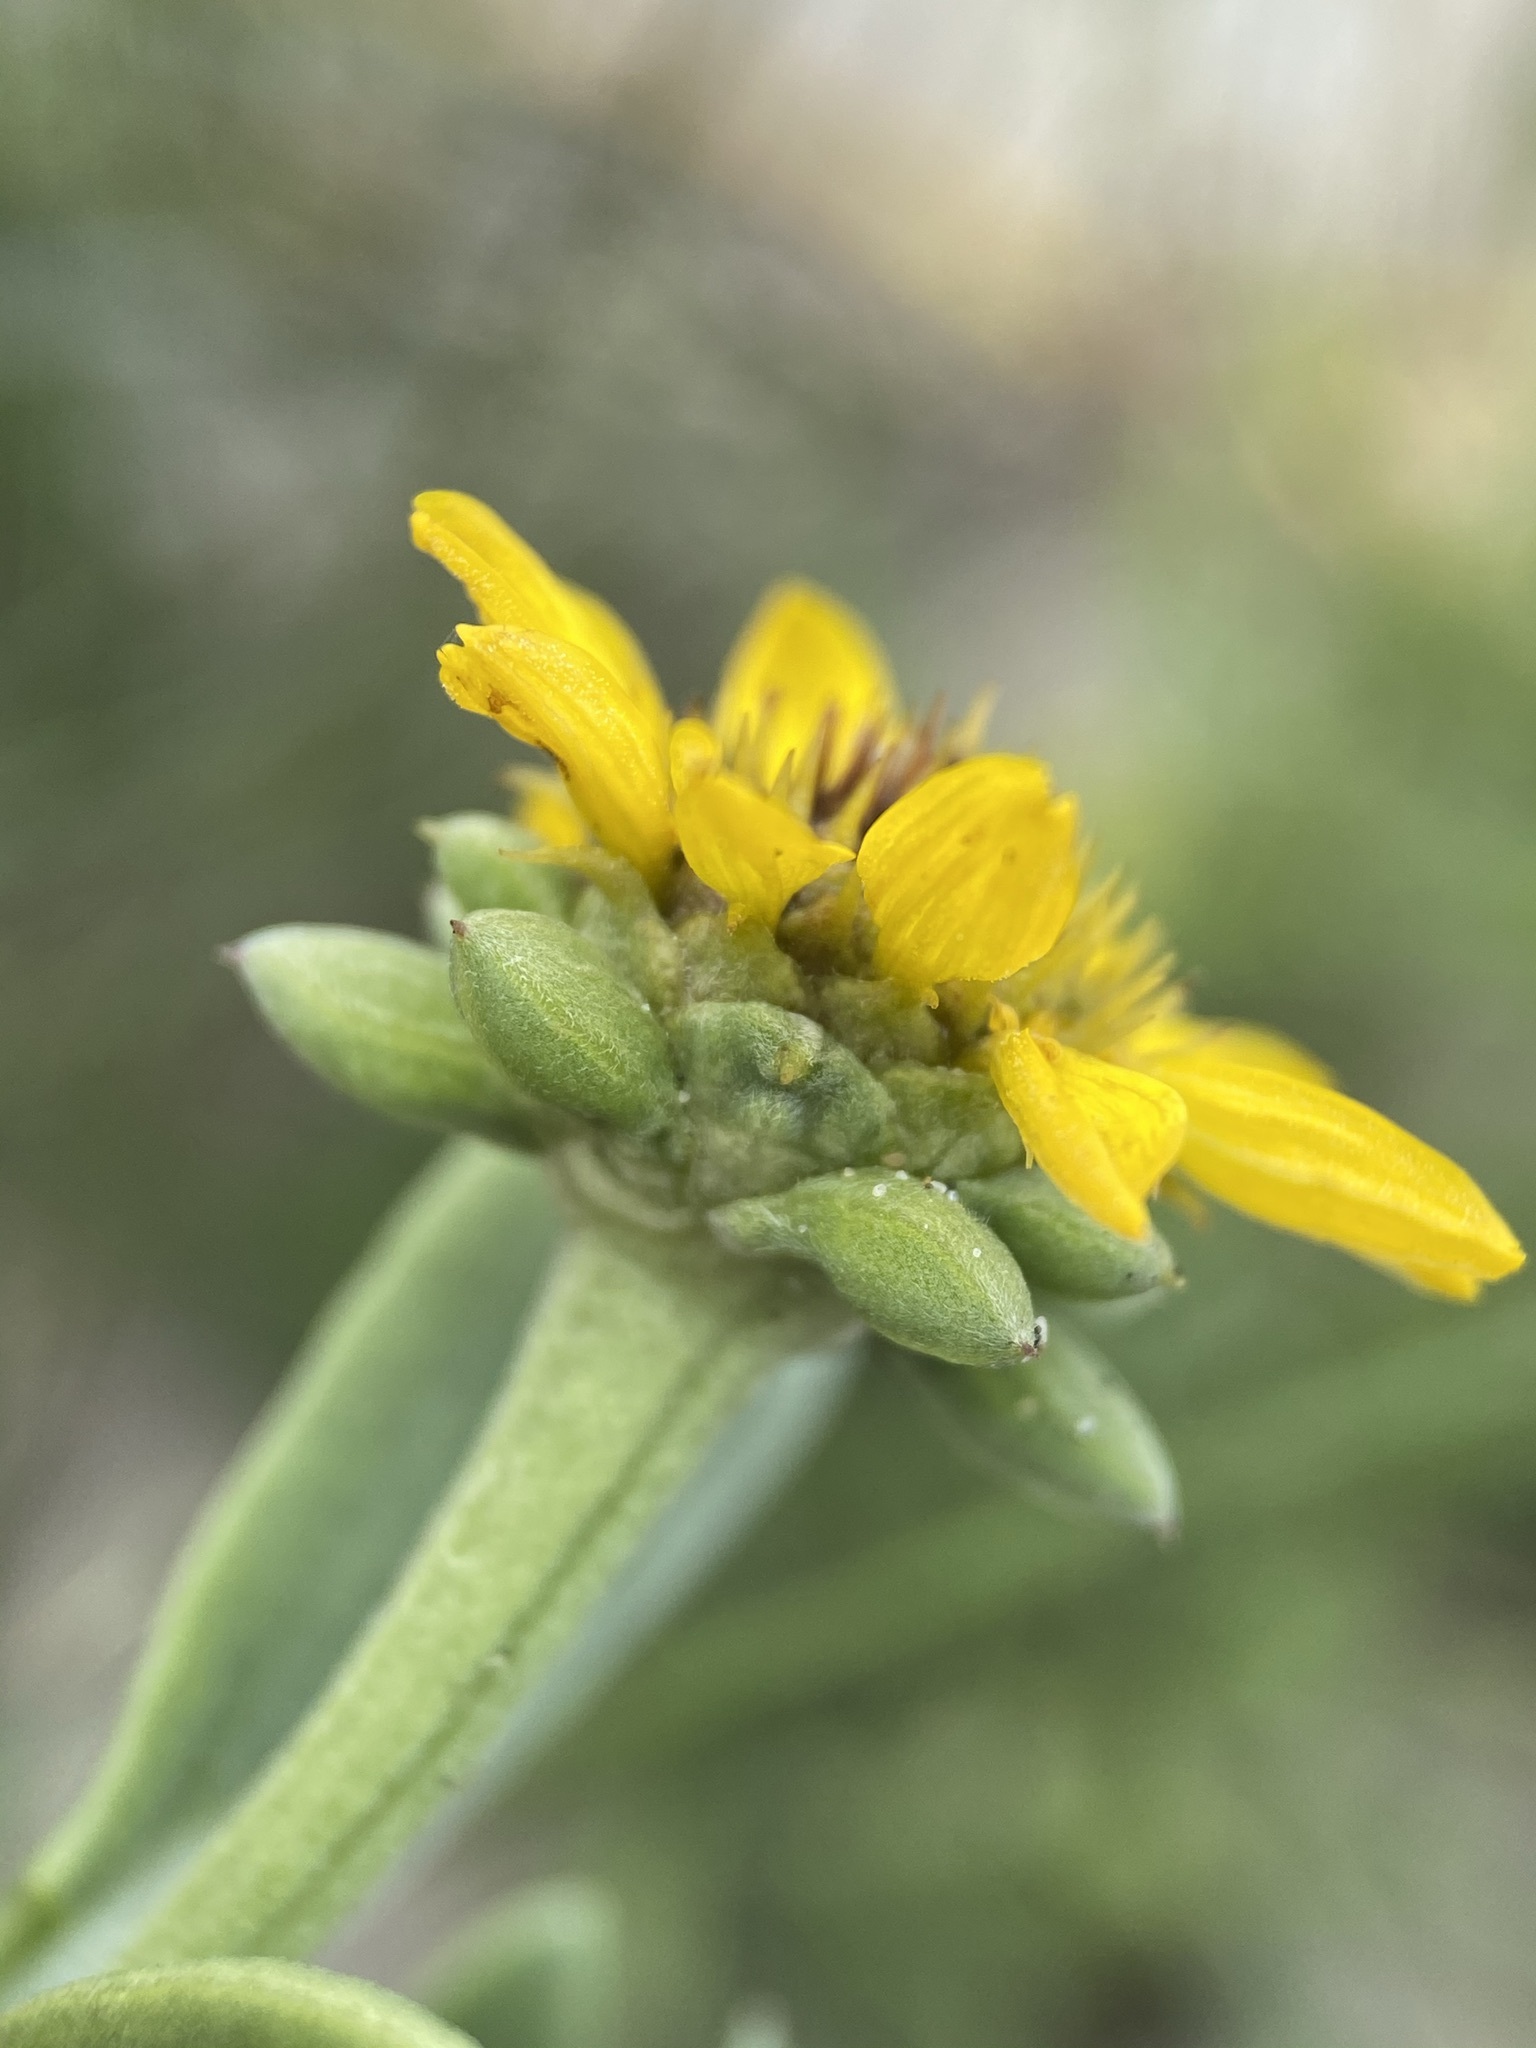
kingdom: Plantae
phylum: Tracheophyta
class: Magnoliopsida
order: Asterales
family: Asteraceae
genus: Borrichia
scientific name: Borrichia frutescens
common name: Sea oxeye
